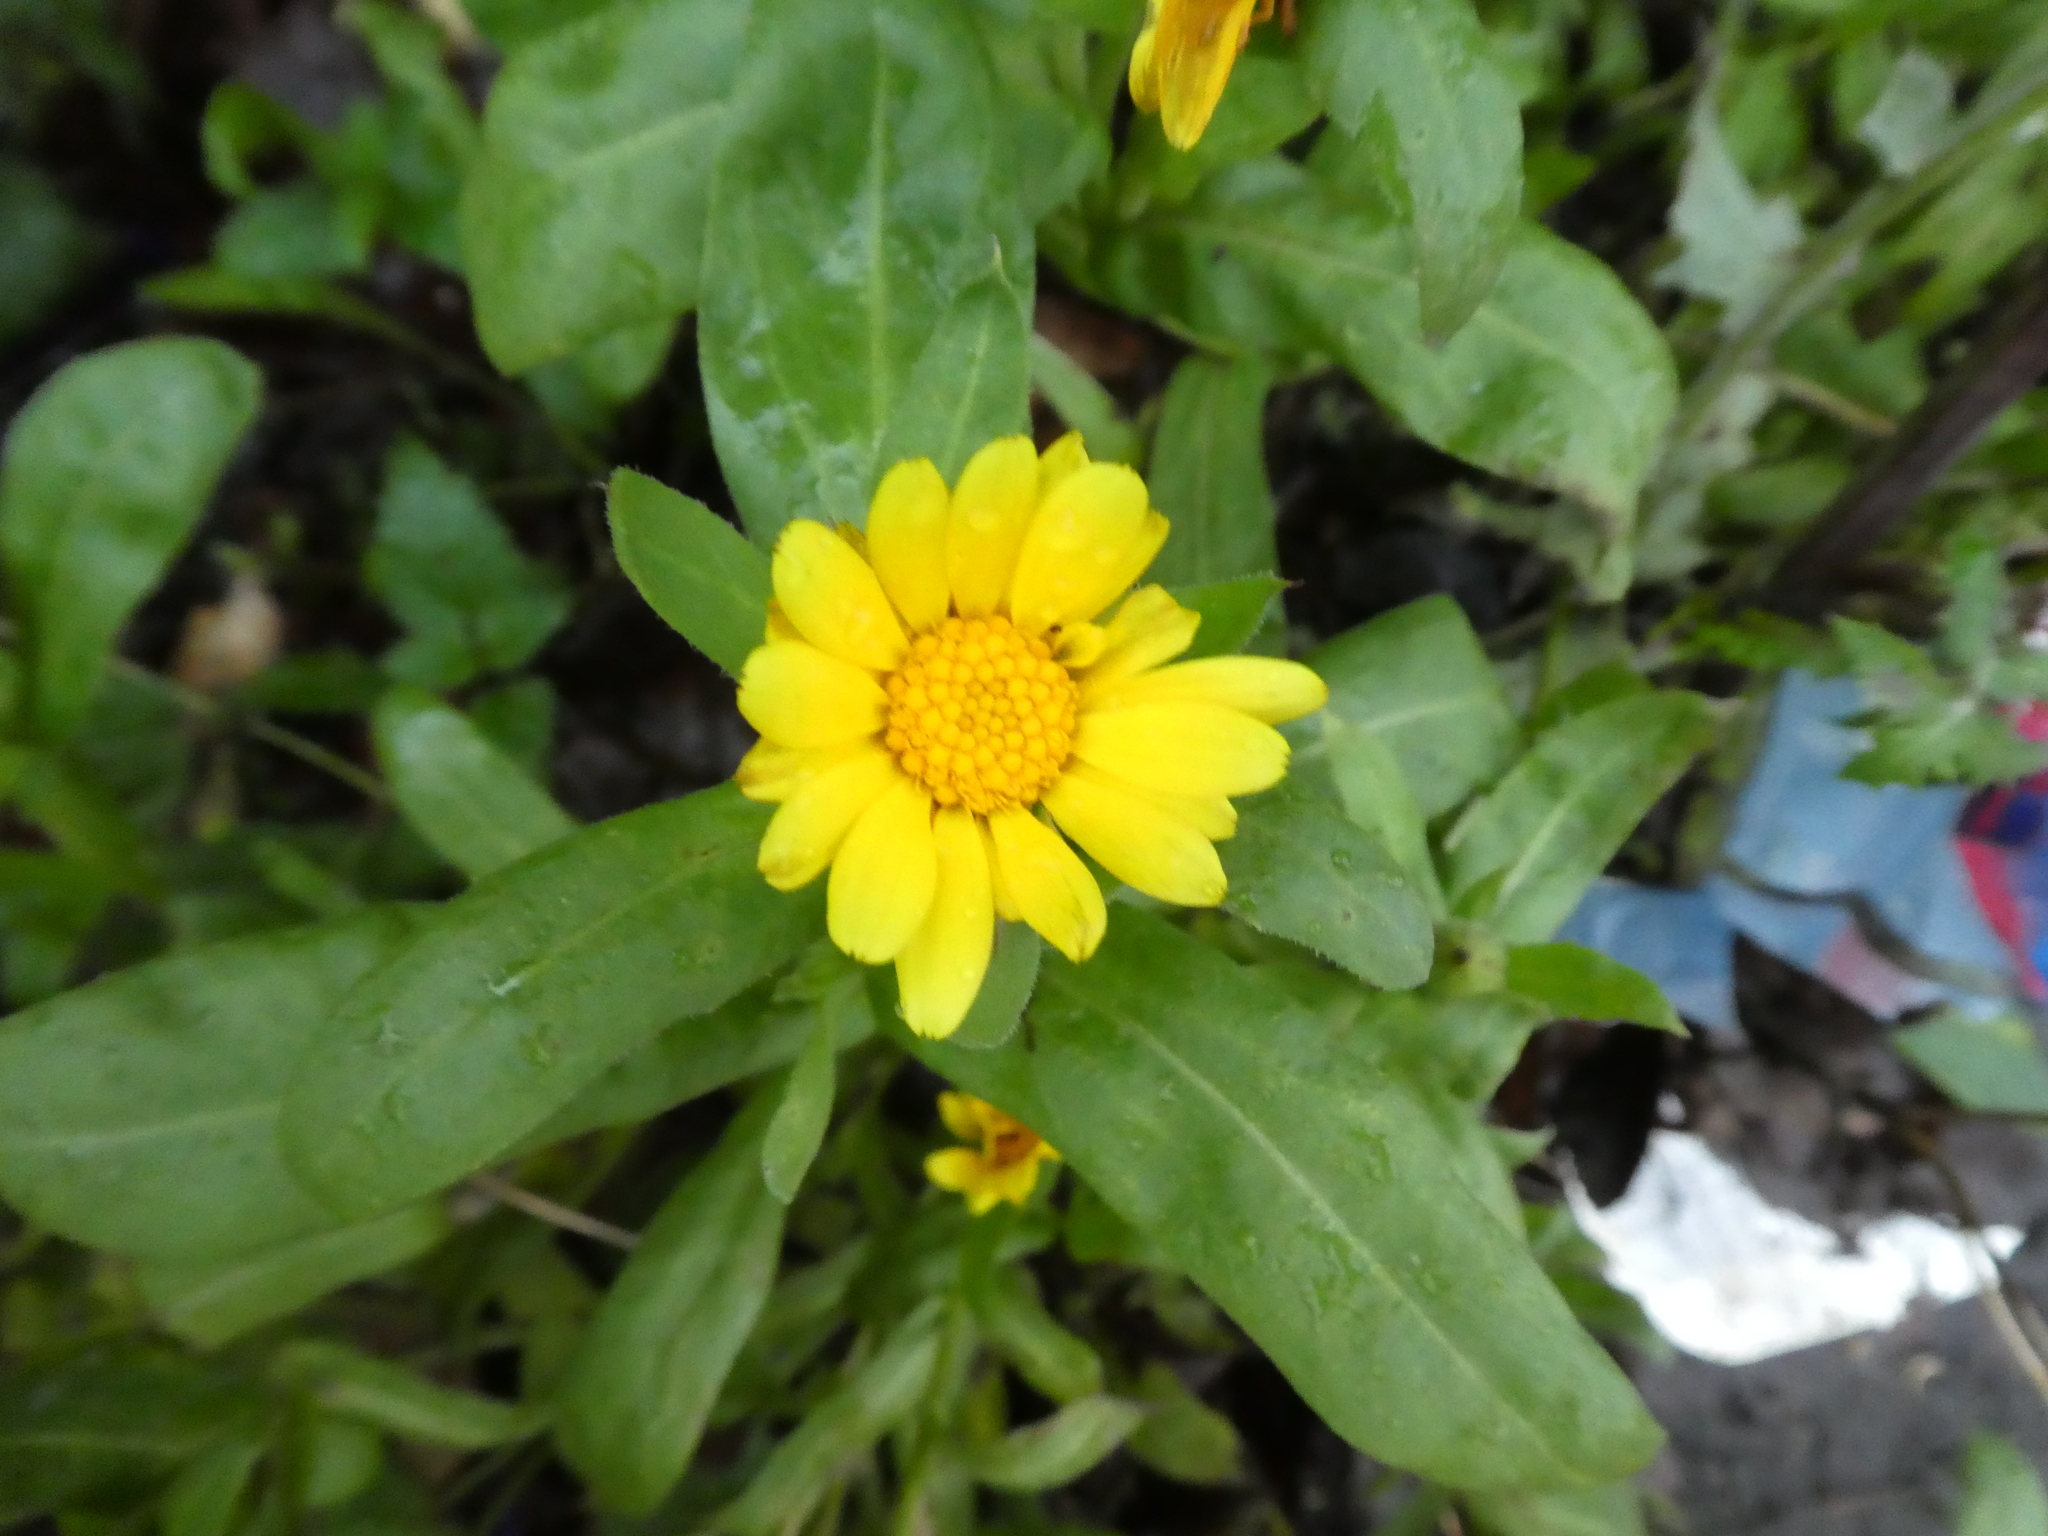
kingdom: Plantae
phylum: Tracheophyta
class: Magnoliopsida
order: Asterales
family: Asteraceae
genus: Calendula
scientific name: Calendula officinalis
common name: Pot marigold
